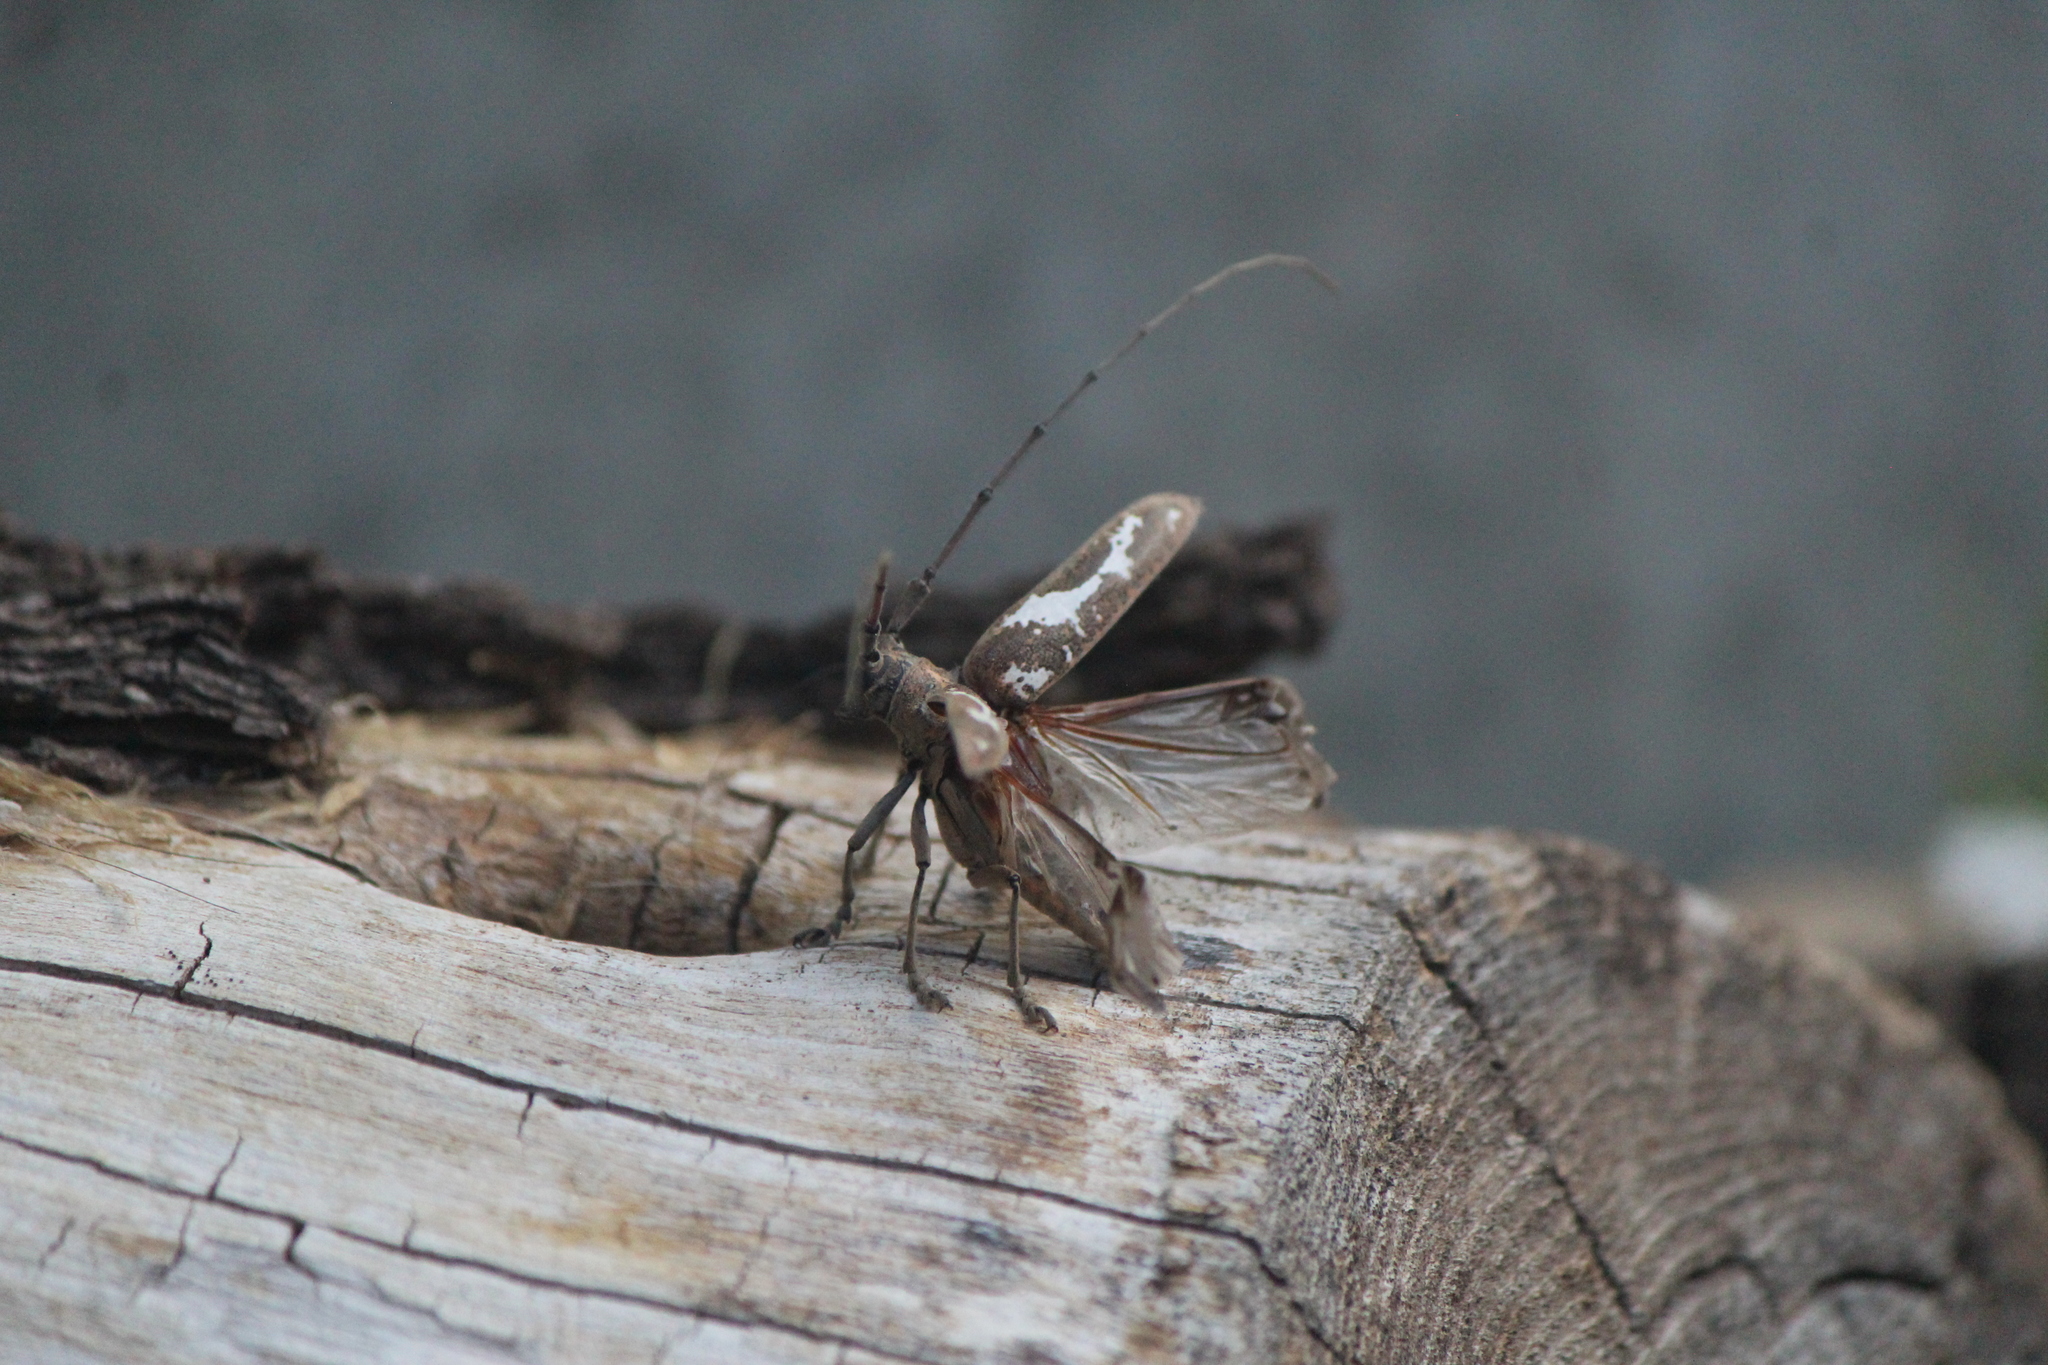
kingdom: Animalia
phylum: Arthropoda
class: Insecta
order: Coleoptera
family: Cerambycidae
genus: Plagiohammus
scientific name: Plagiohammus laceratus
